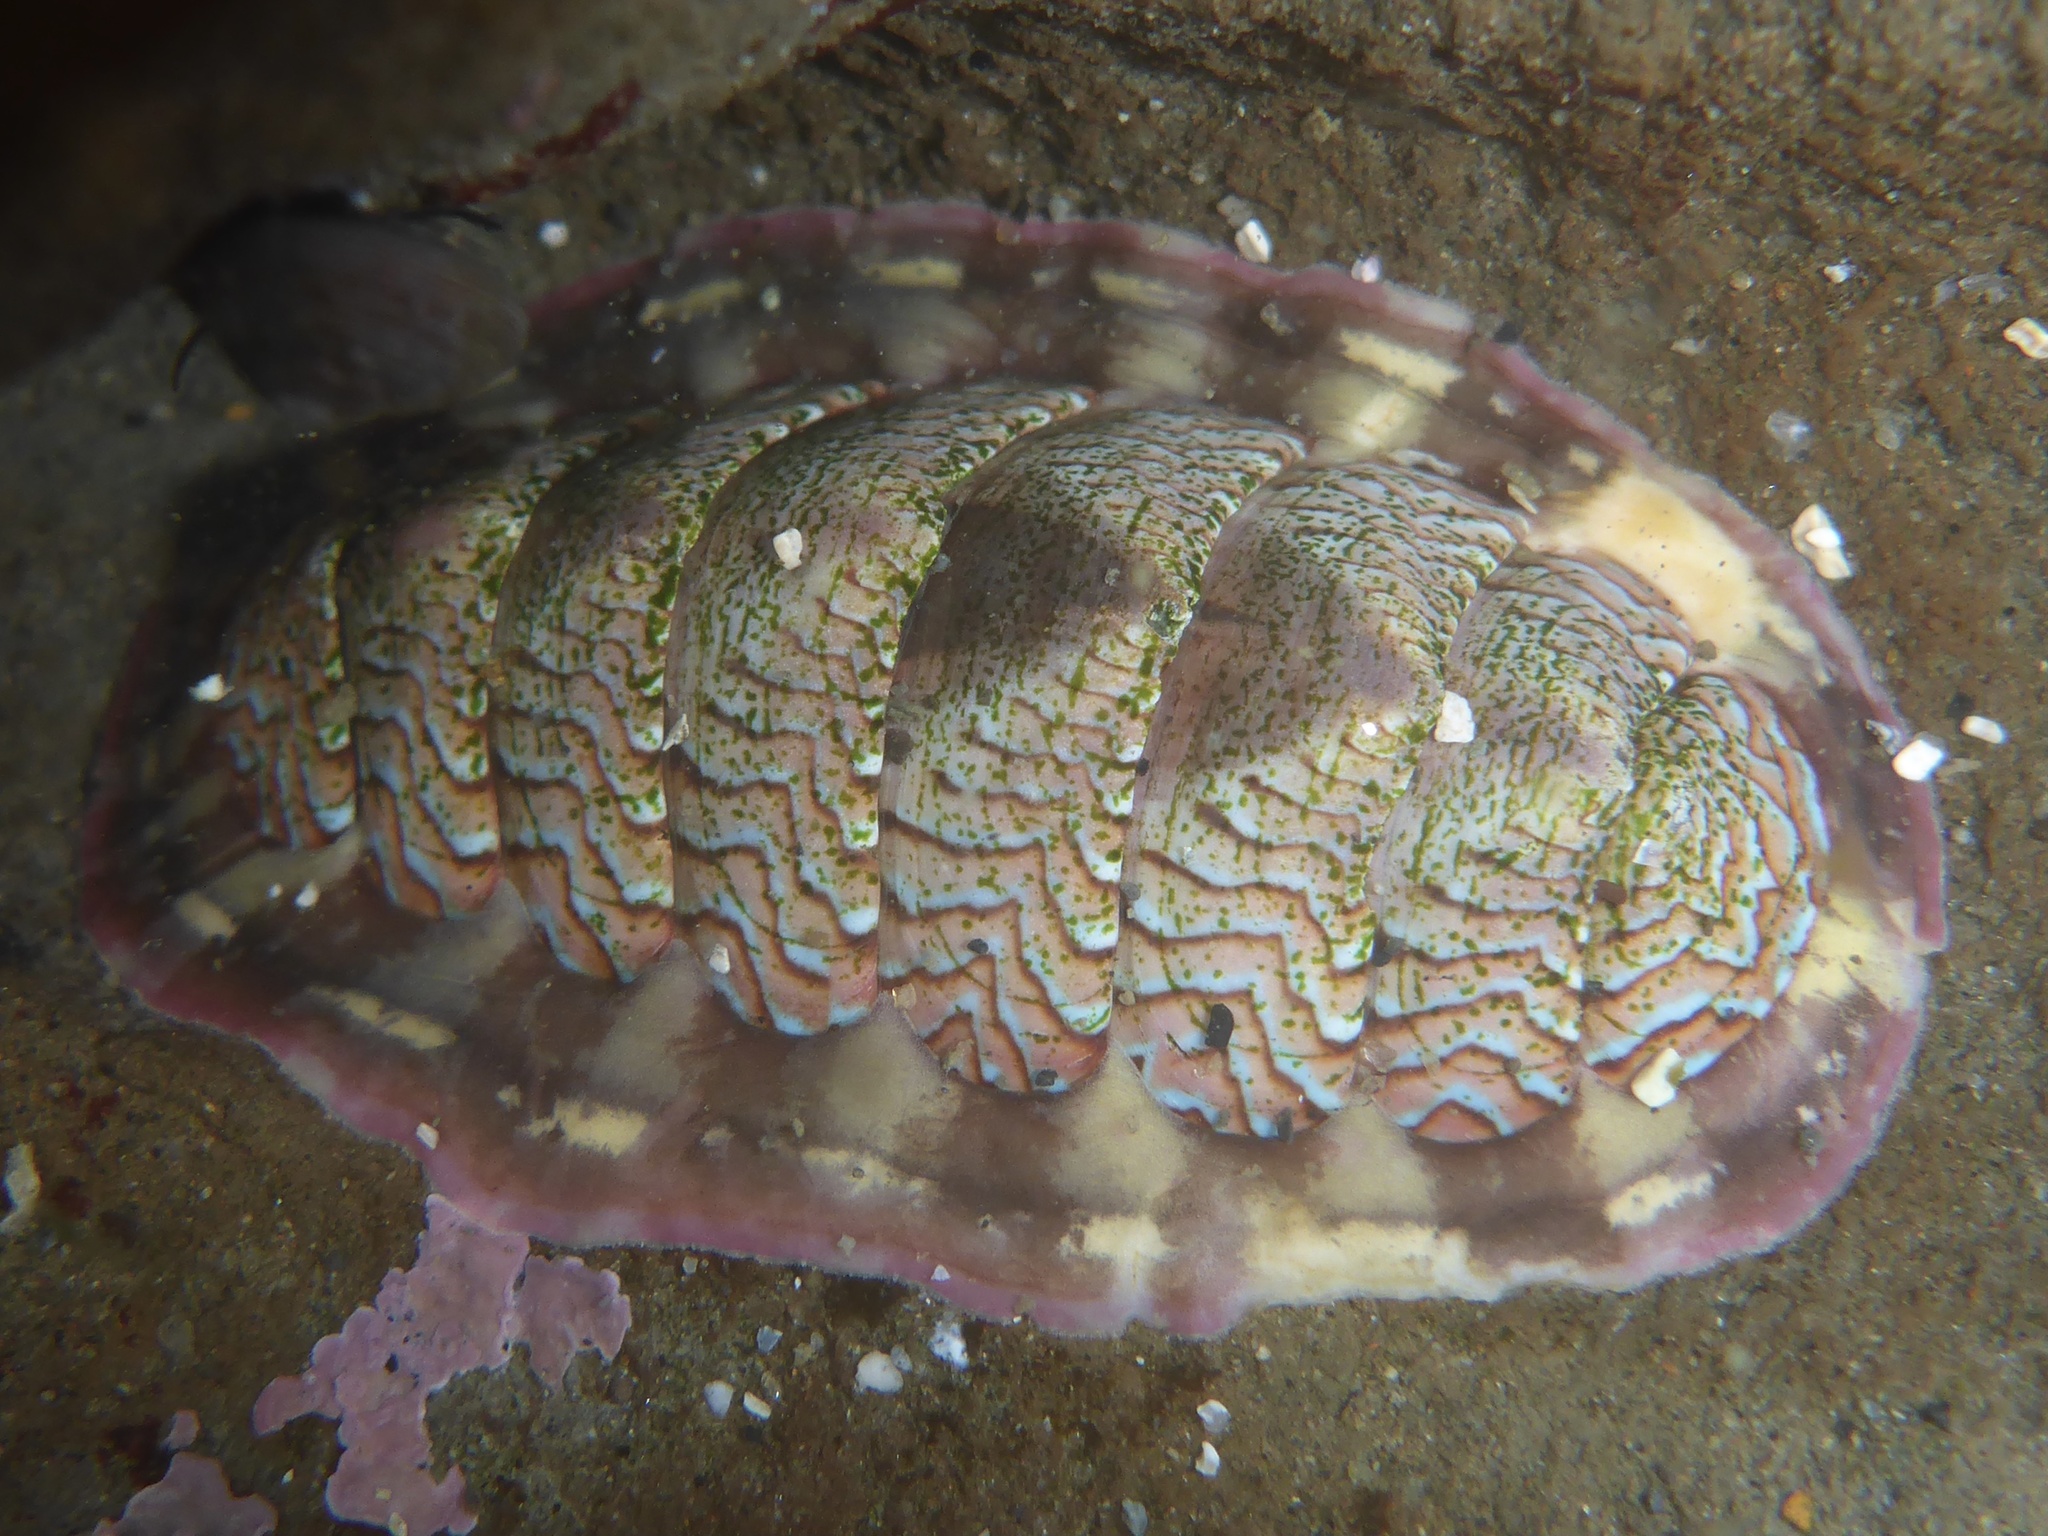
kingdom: Animalia
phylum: Mollusca
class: Polyplacophora
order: Chitonida
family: Tonicellidae
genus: Tonicella
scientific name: Tonicella lokii
